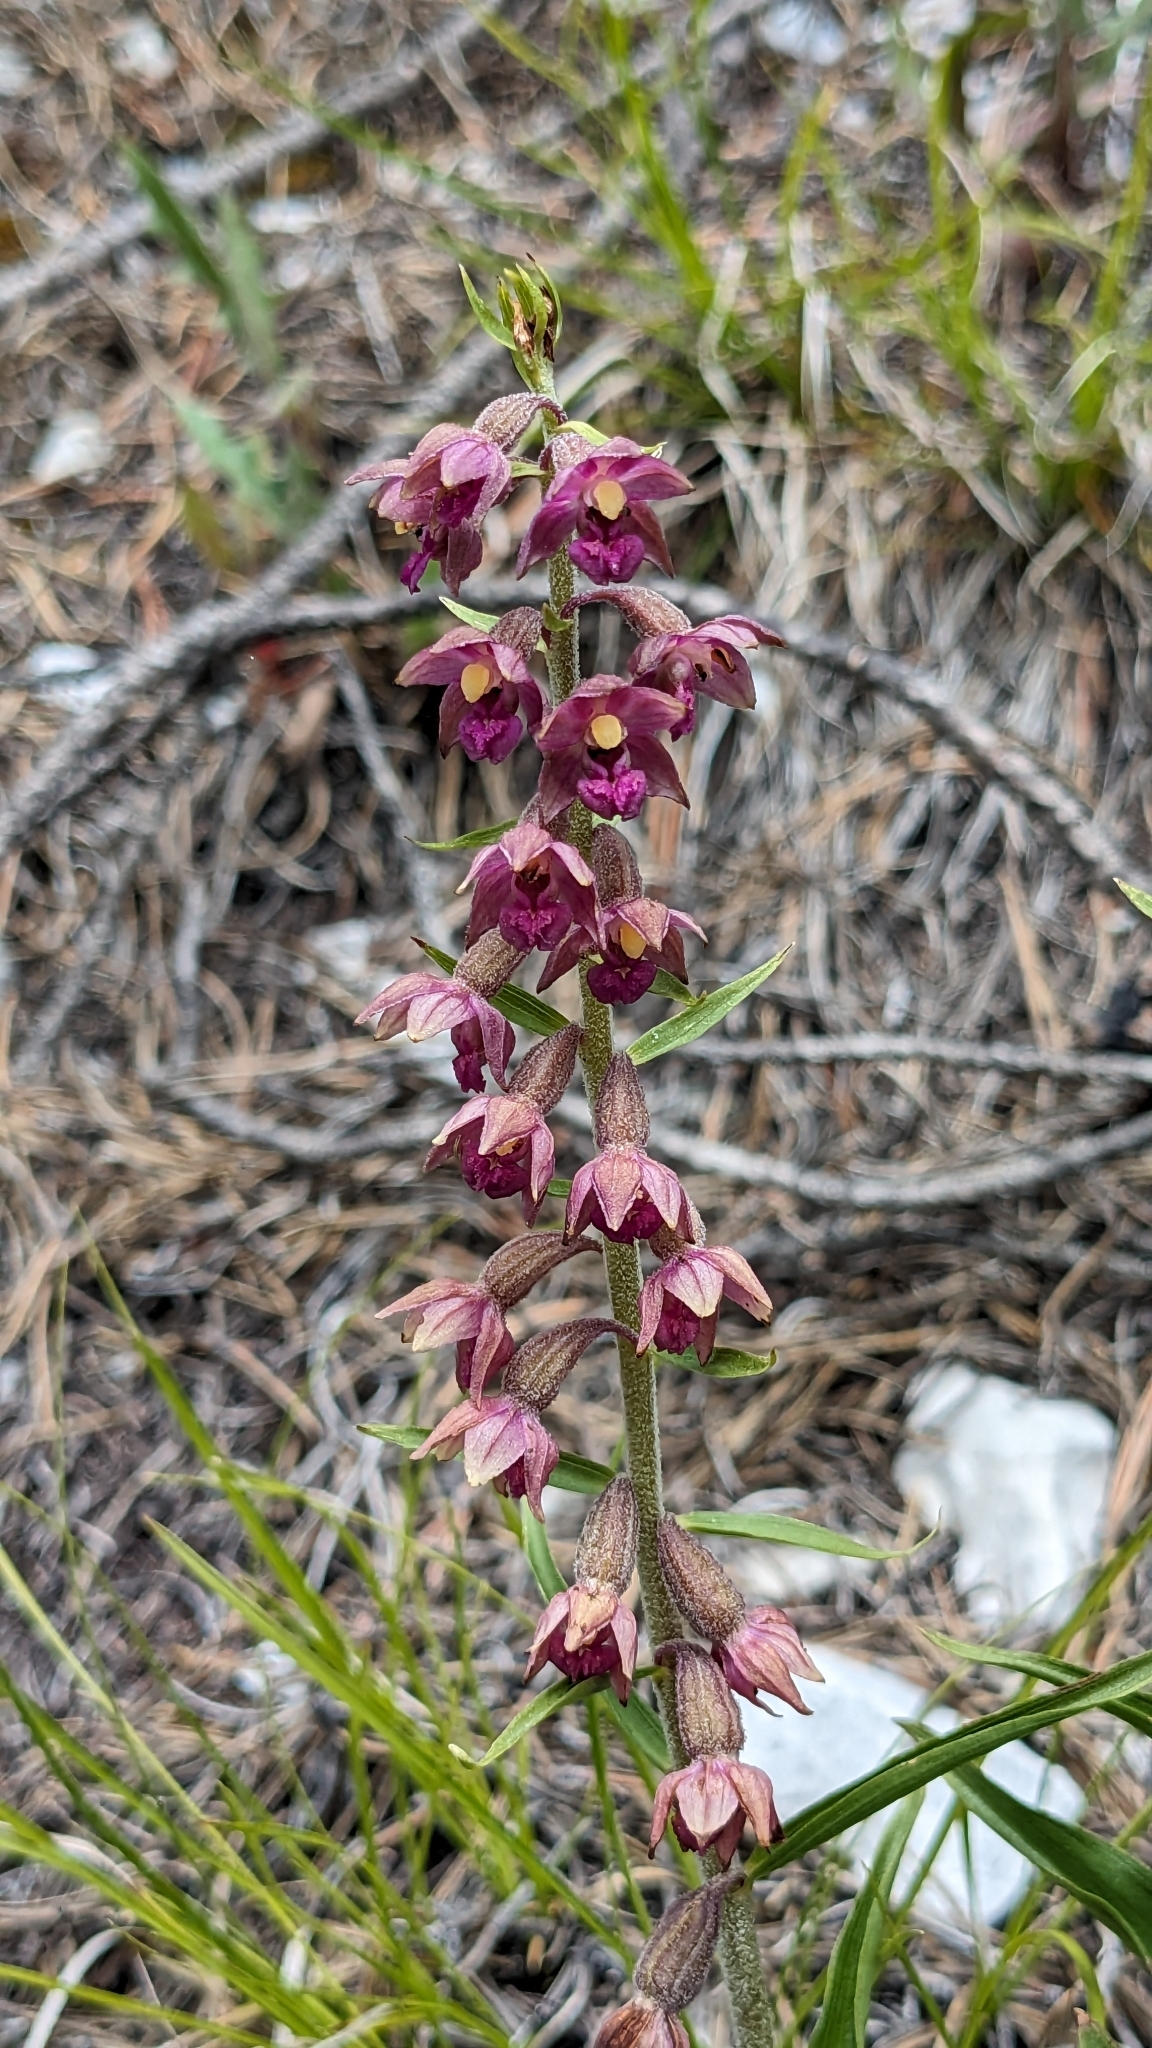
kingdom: Plantae
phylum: Tracheophyta
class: Liliopsida
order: Asparagales
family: Orchidaceae
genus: Epipactis
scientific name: Epipactis atrorubens
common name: Dark-red helleborine
